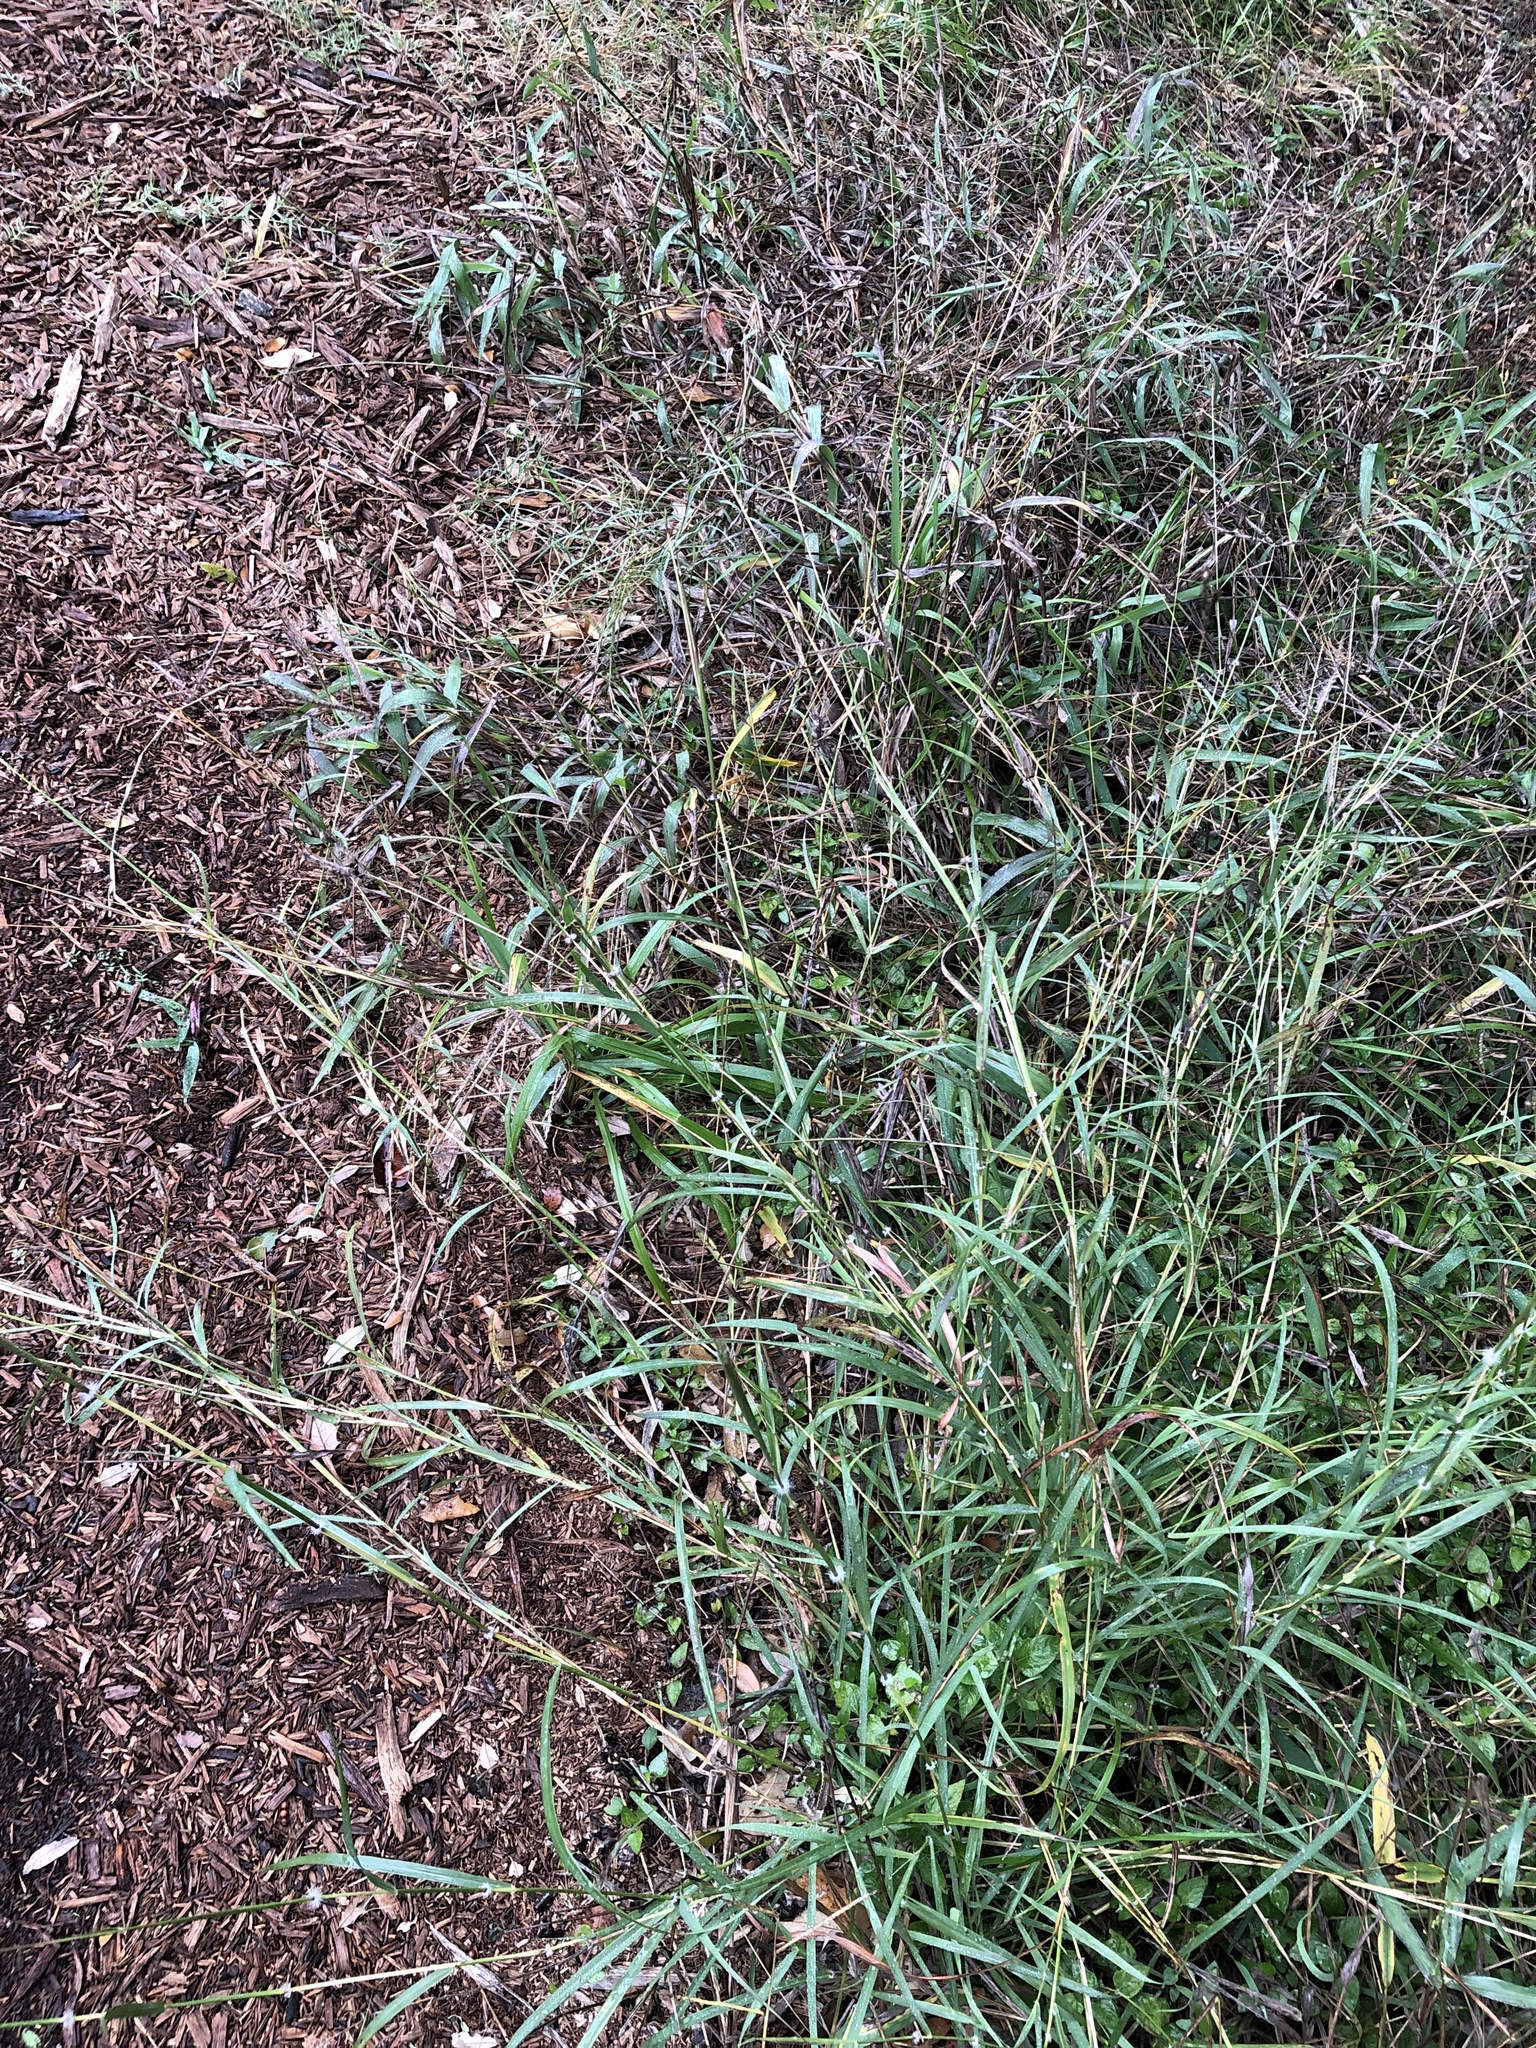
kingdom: Plantae
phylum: Tracheophyta
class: Liliopsida
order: Poales
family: Poaceae
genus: Dichanthium
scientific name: Dichanthium annulatum
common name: Kleberg's bluestem
